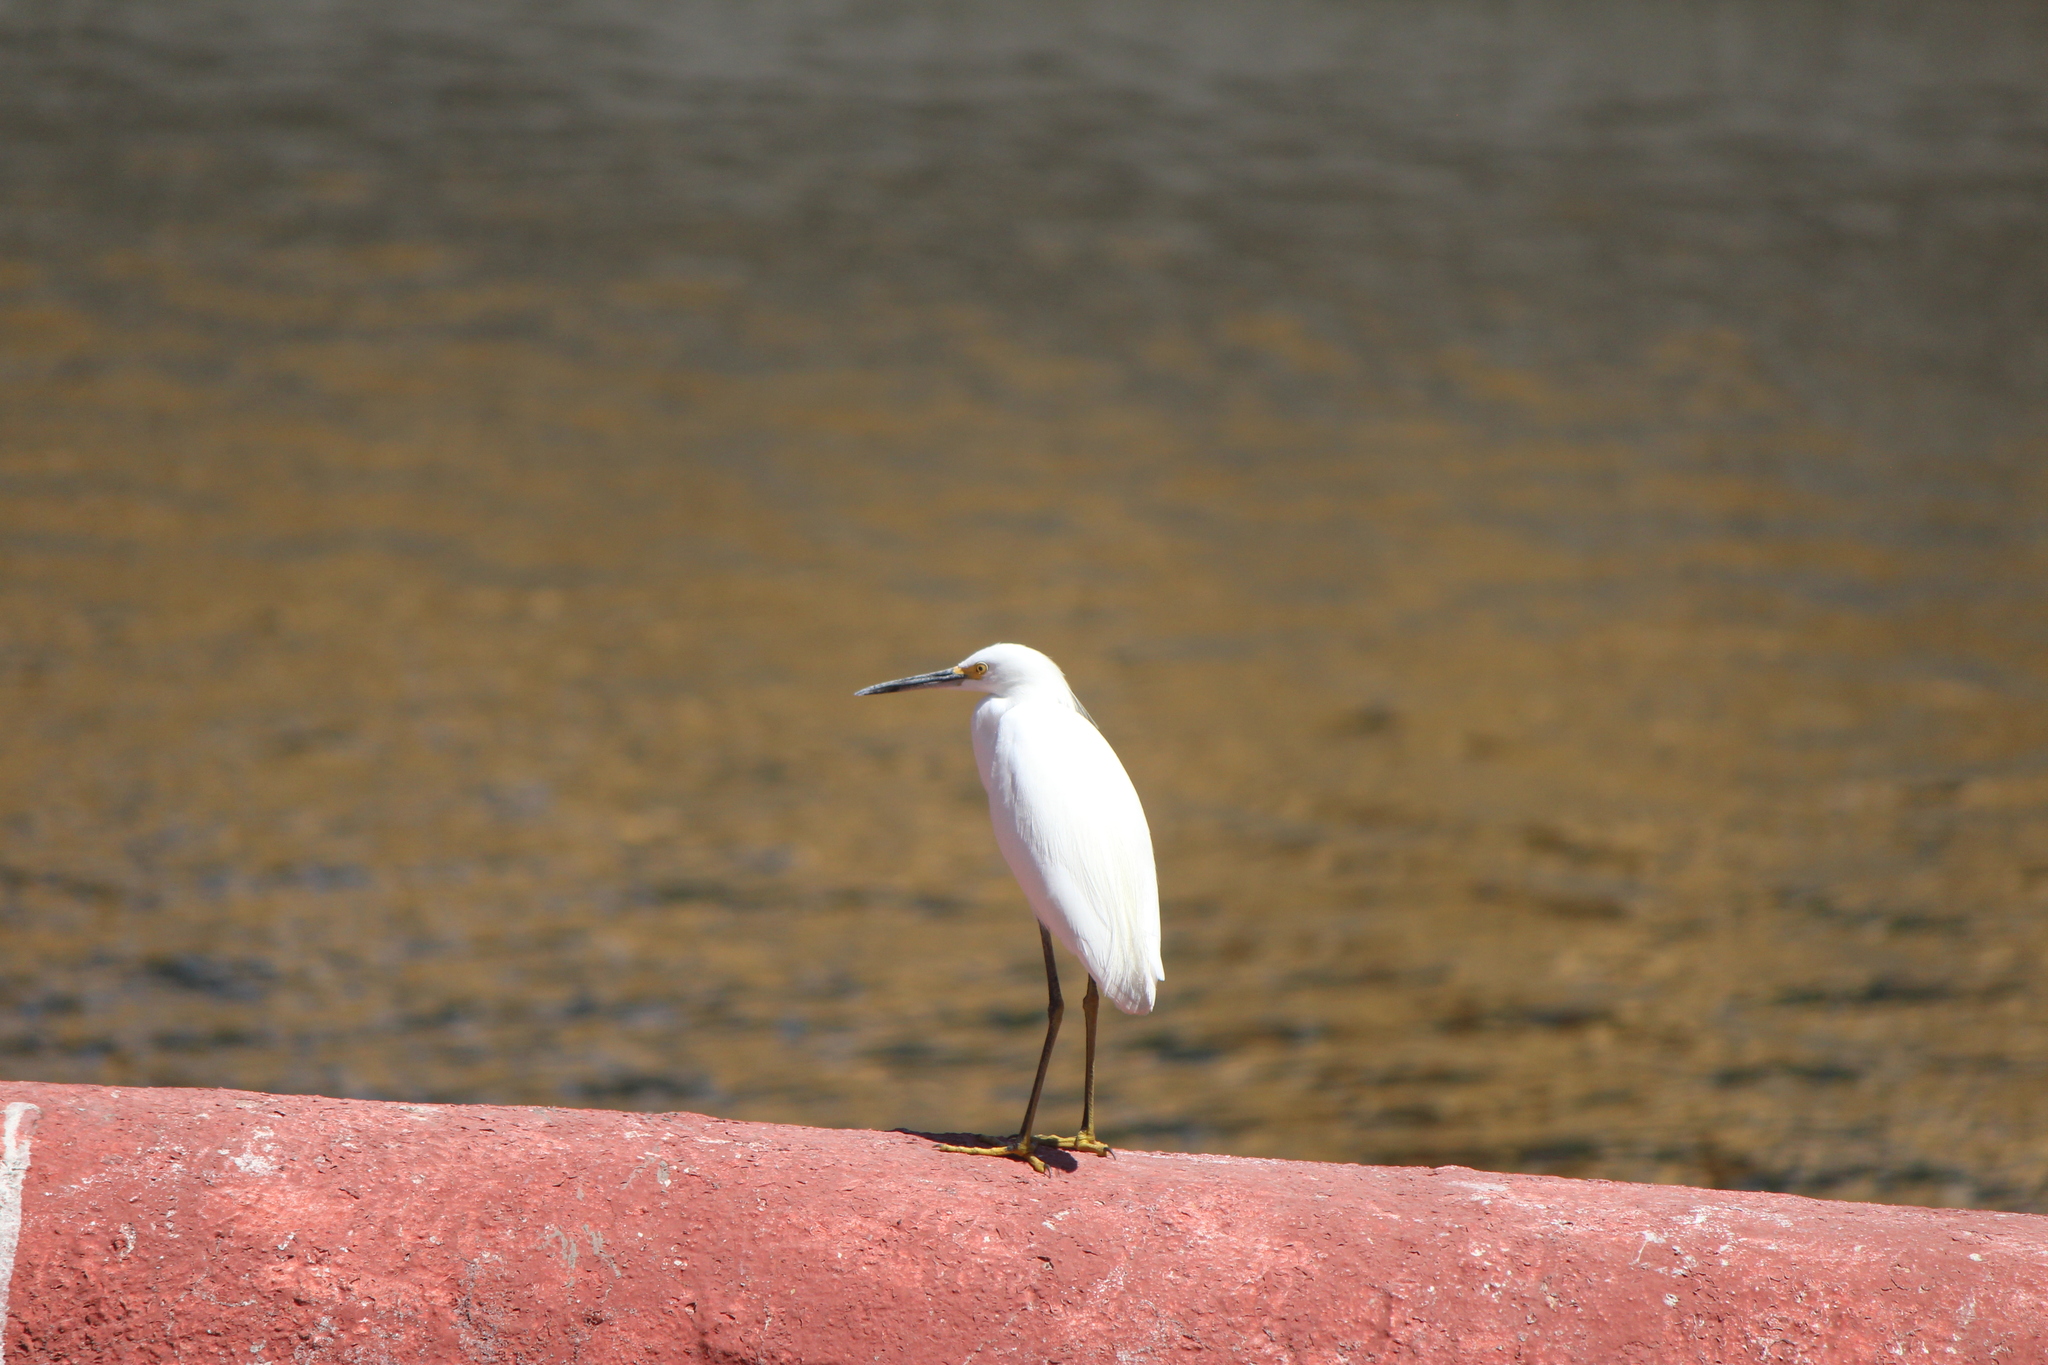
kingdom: Animalia
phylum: Chordata
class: Aves
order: Pelecaniformes
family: Ardeidae
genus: Egretta
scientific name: Egretta thula
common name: Snowy egret
